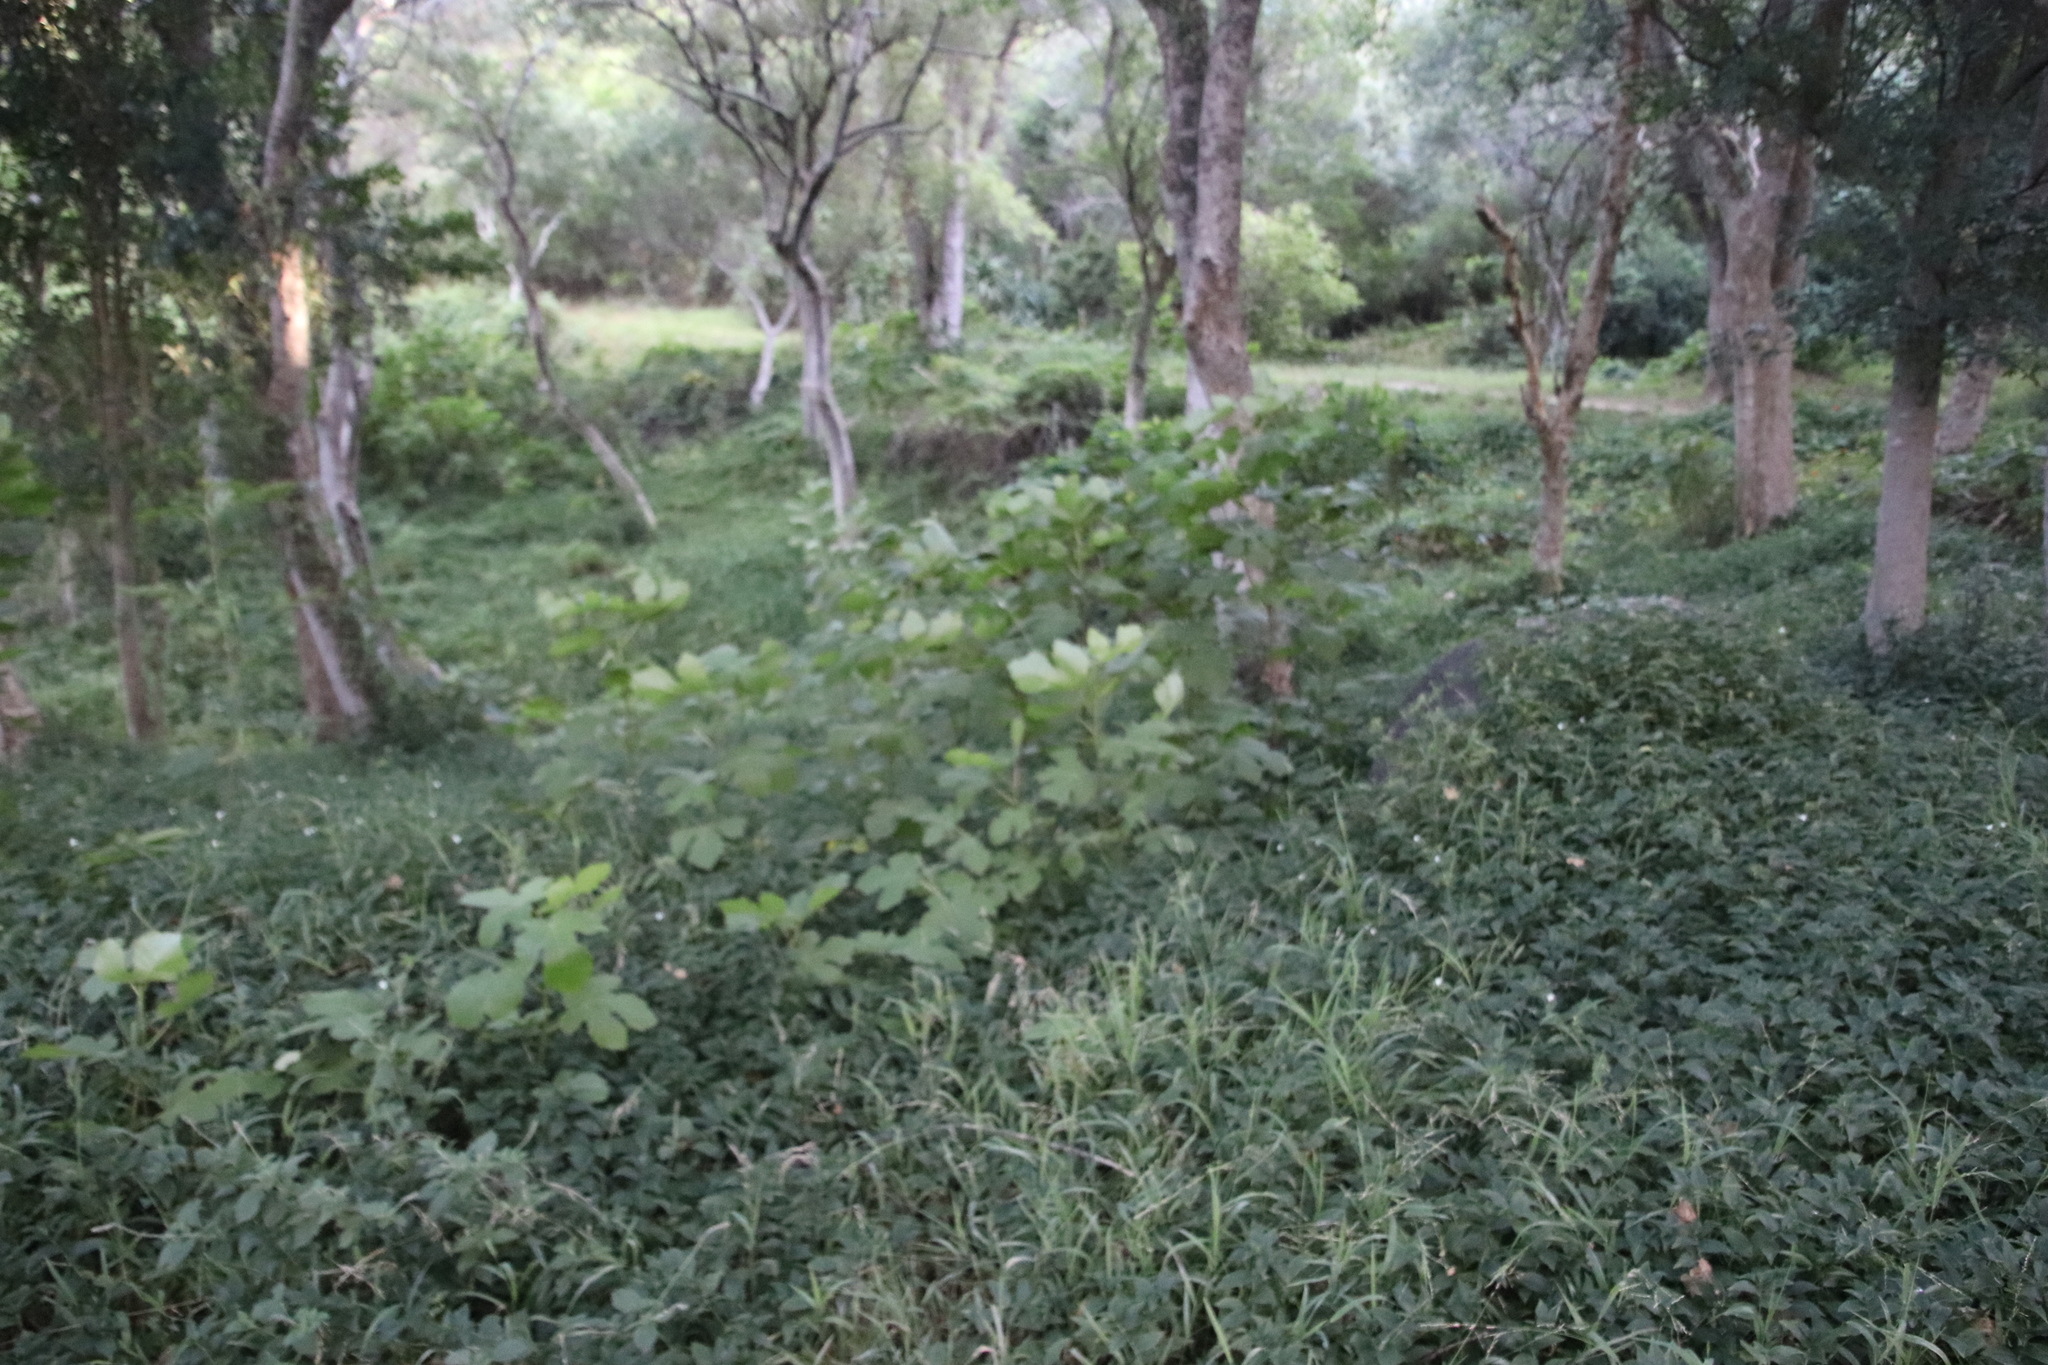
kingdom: Plantae
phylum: Tracheophyta
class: Liliopsida
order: Commelinales
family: Commelinaceae
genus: Tradescantia
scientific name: Tradescantia fluminensis
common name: Wandering-jew
